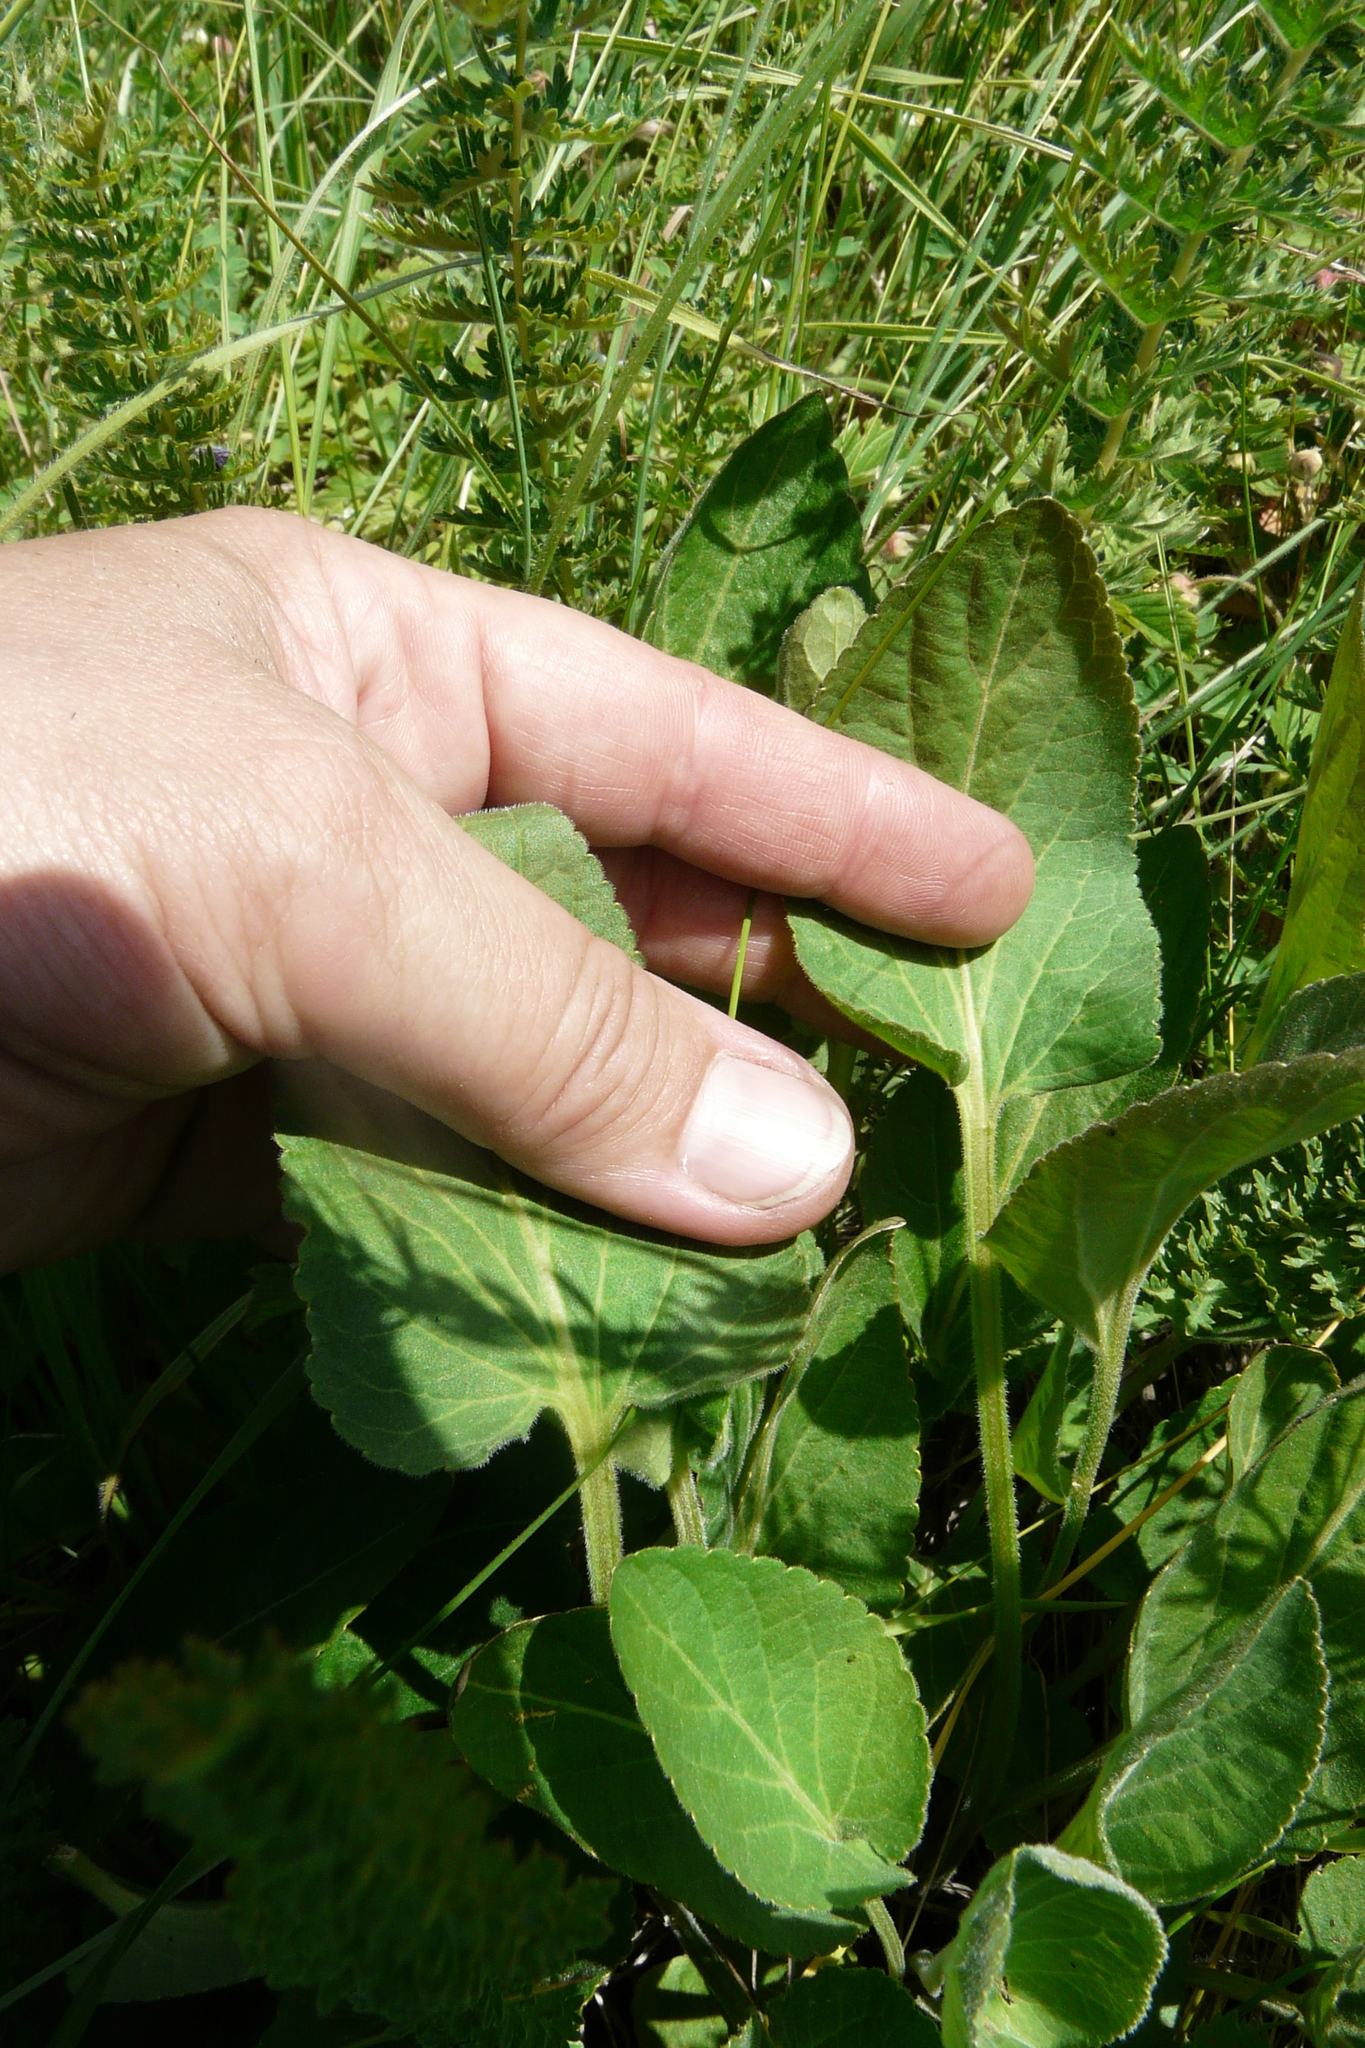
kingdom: Plantae
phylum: Tracheophyta
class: Magnoliopsida
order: Malpighiales
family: Violaceae
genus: Viola
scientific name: Viola ambigua
